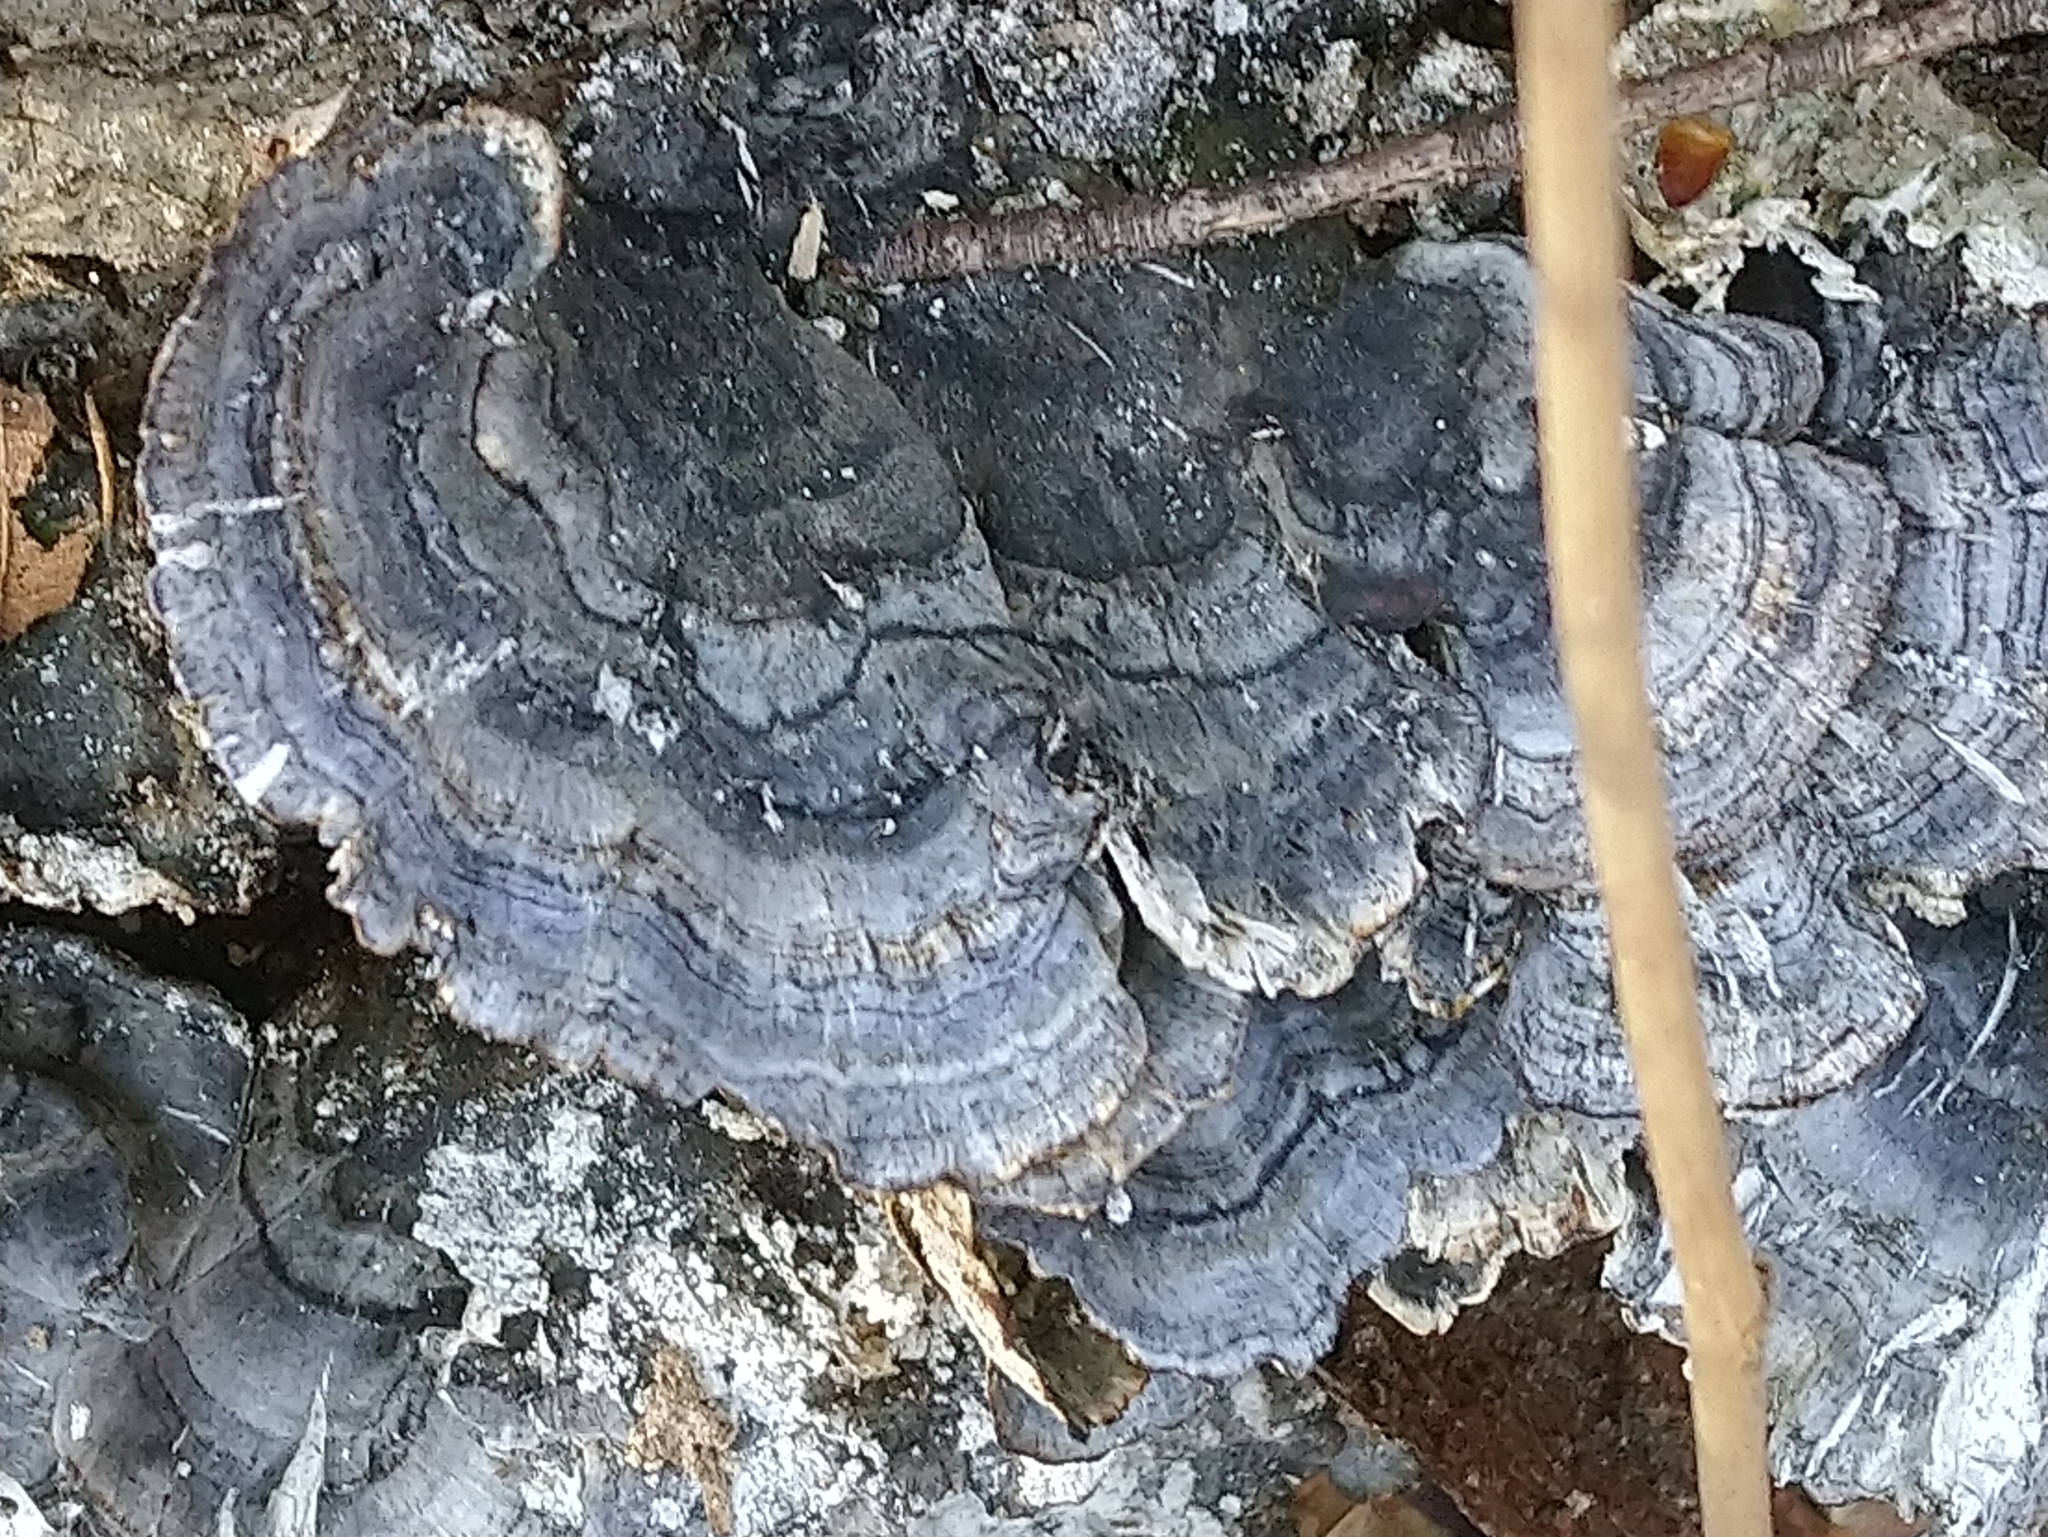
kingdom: Fungi
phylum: Basidiomycota
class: Agaricomycetes
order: Polyporales
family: Polyporaceae
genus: Trametes
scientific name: Trametes versicolor
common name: Turkeytail
